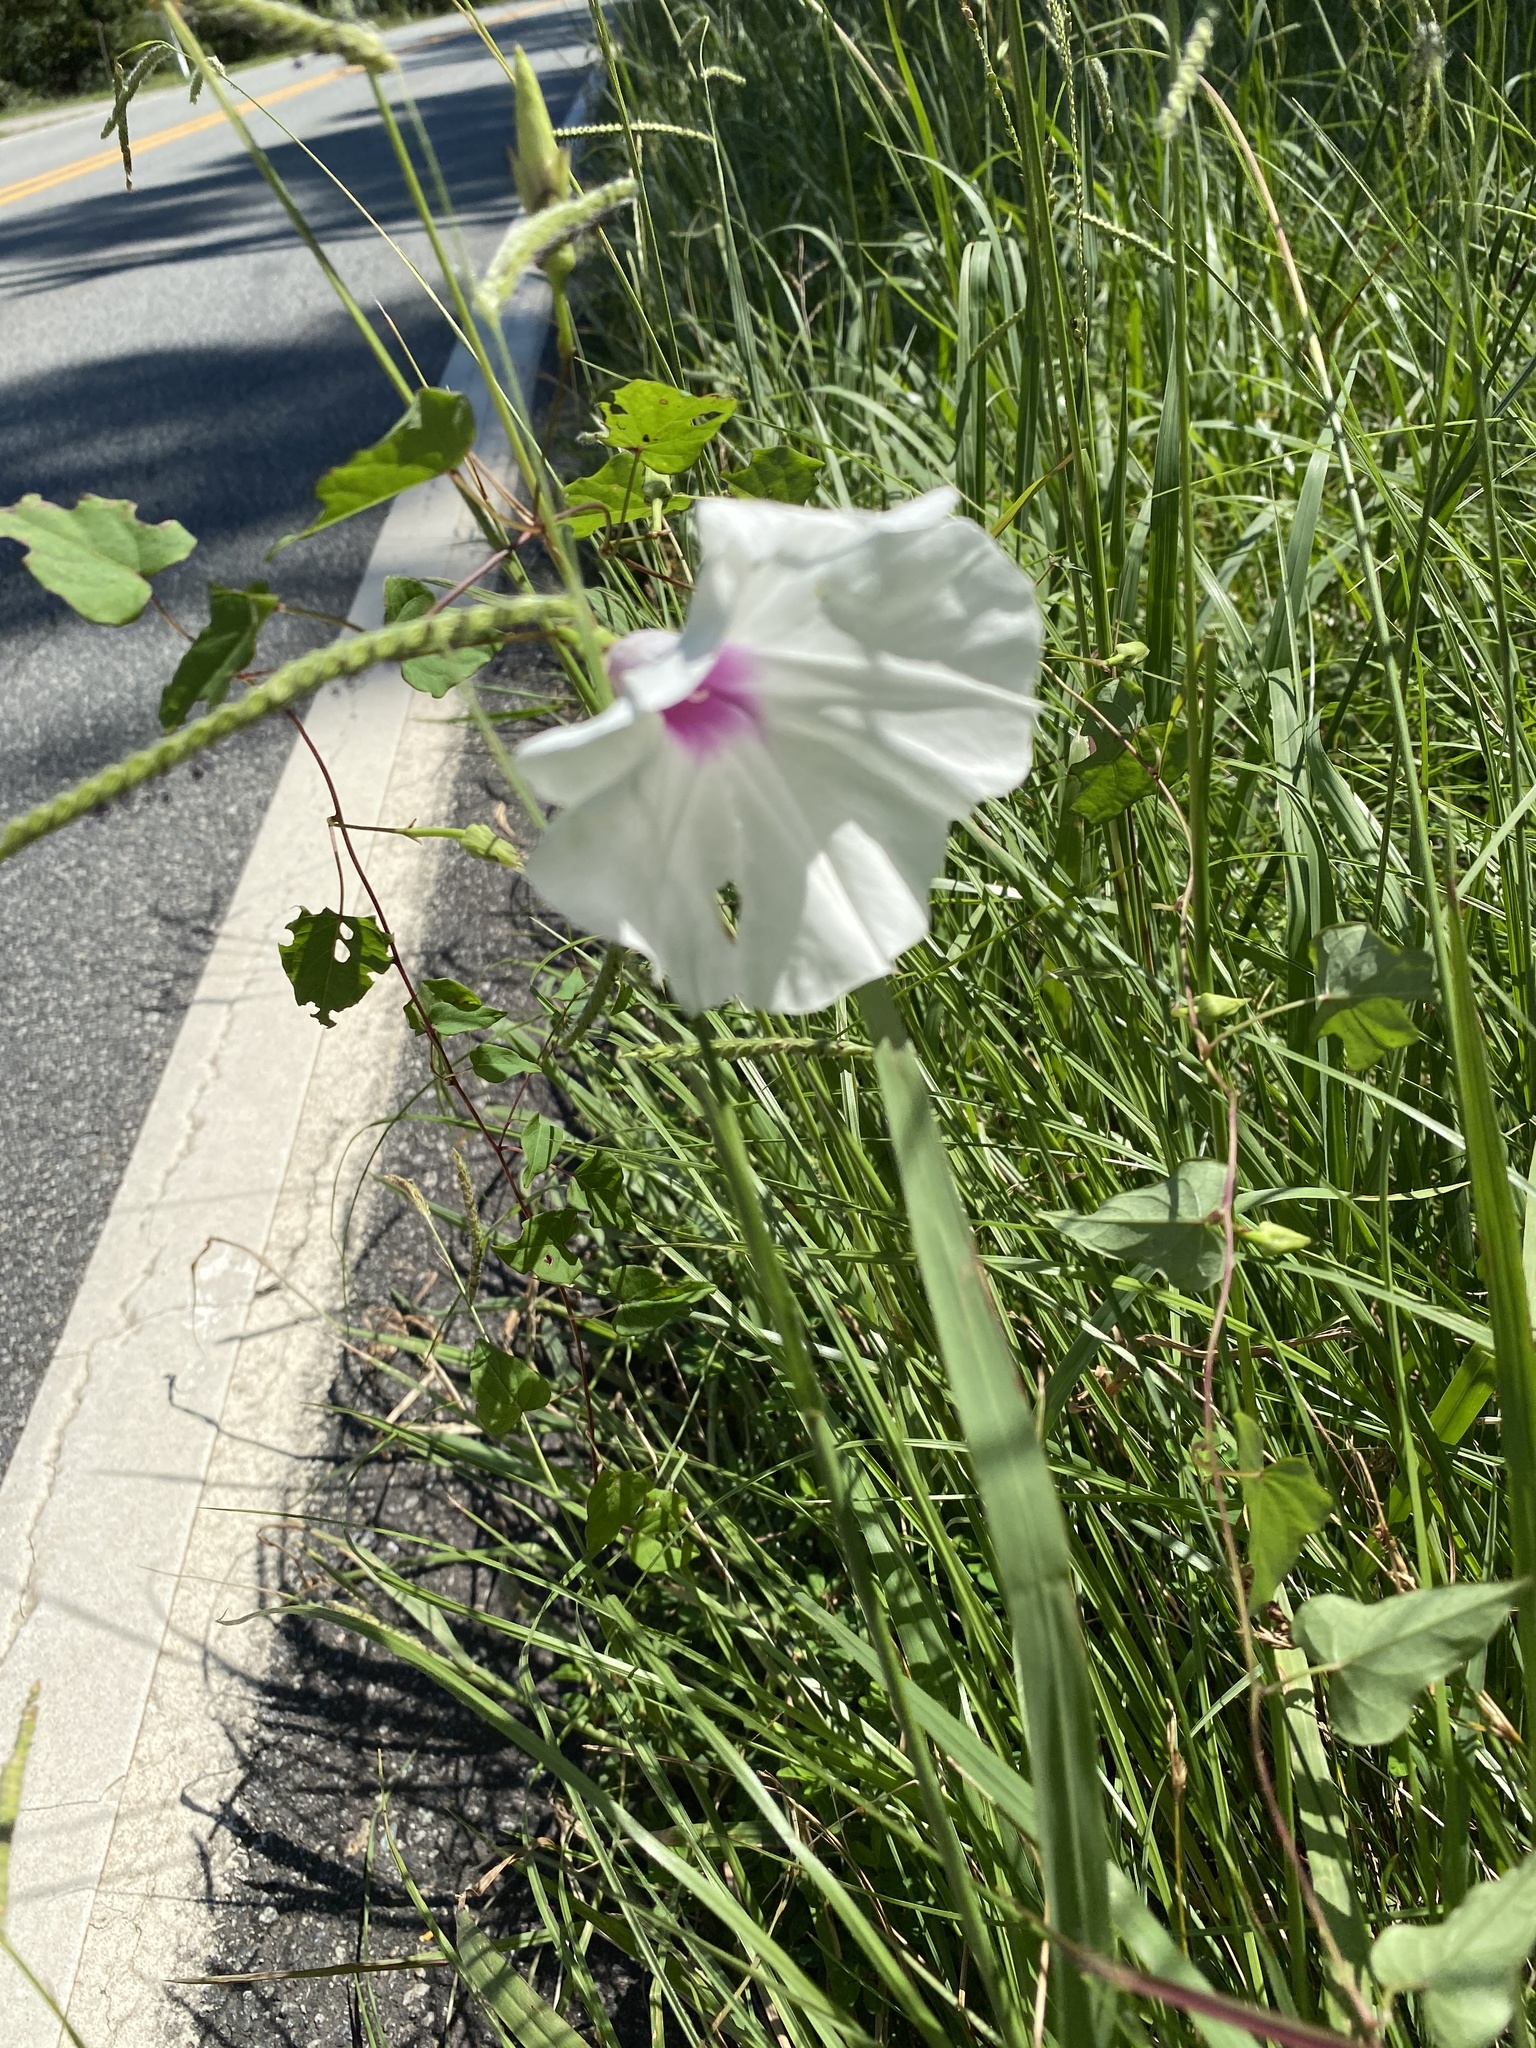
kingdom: Plantae
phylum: Tracheophyta
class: Magnoliopsida
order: Solanales
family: Convolvulaceae
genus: Ipomoea
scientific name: Ipomoea pandurata
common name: Man-of-the-earth
